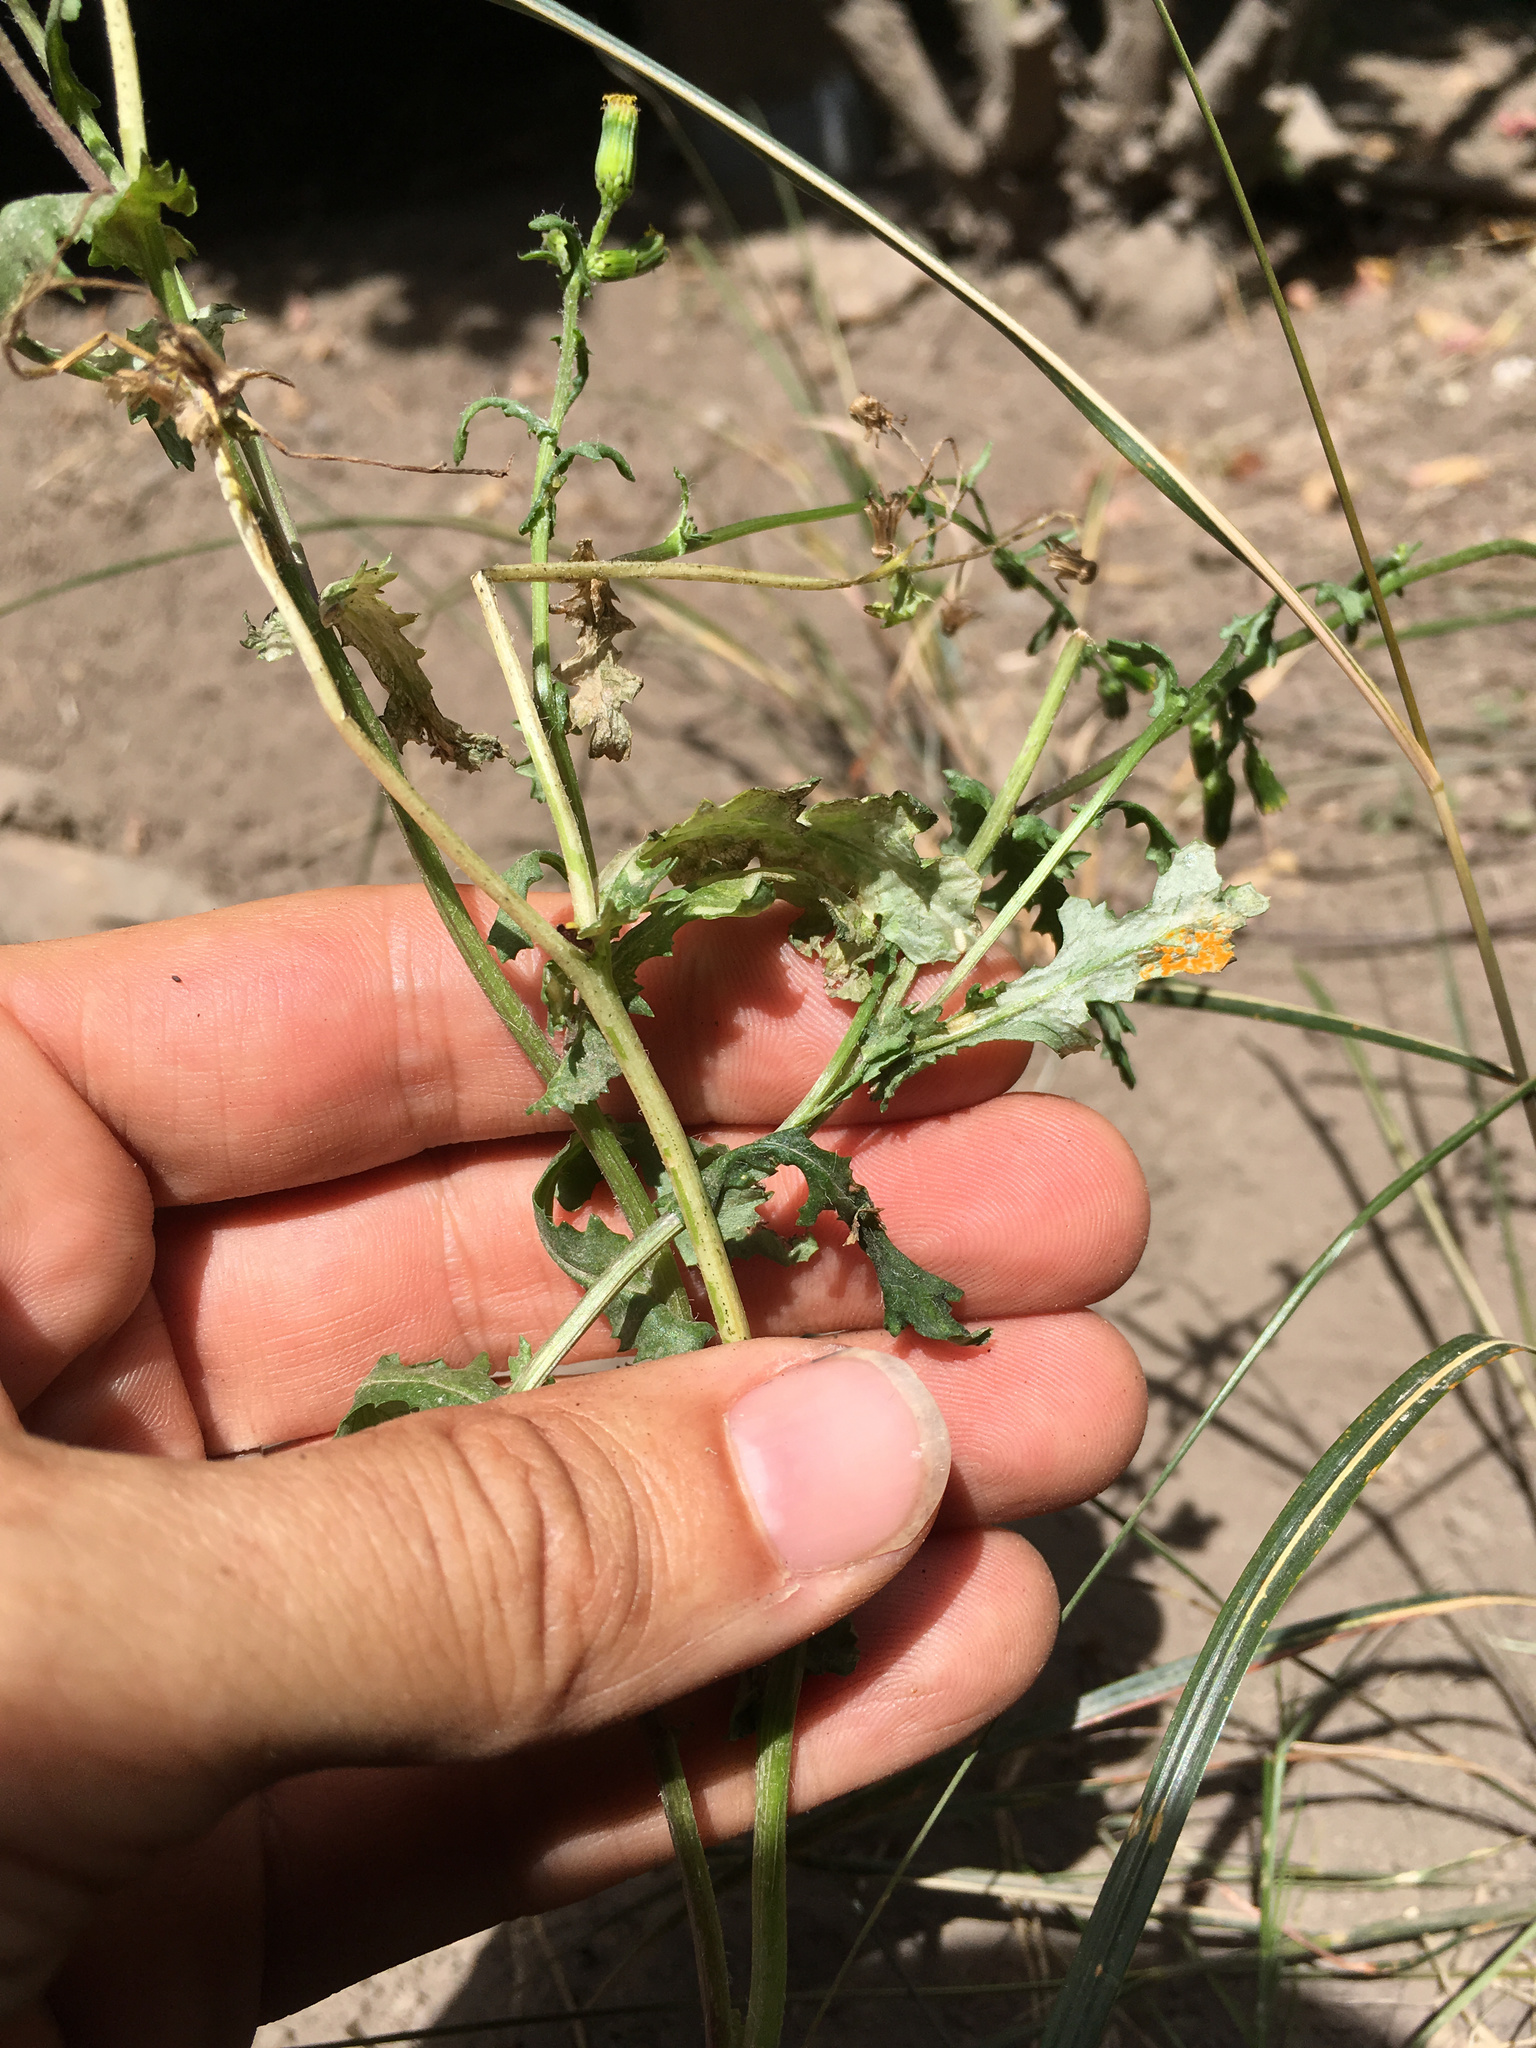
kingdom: Fungi
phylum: Basidiomycota
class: Pucciniomycetes
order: Pucciniales
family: Coleosporiaceae
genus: Coleosporium
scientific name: Coleosporium tussilaginis
